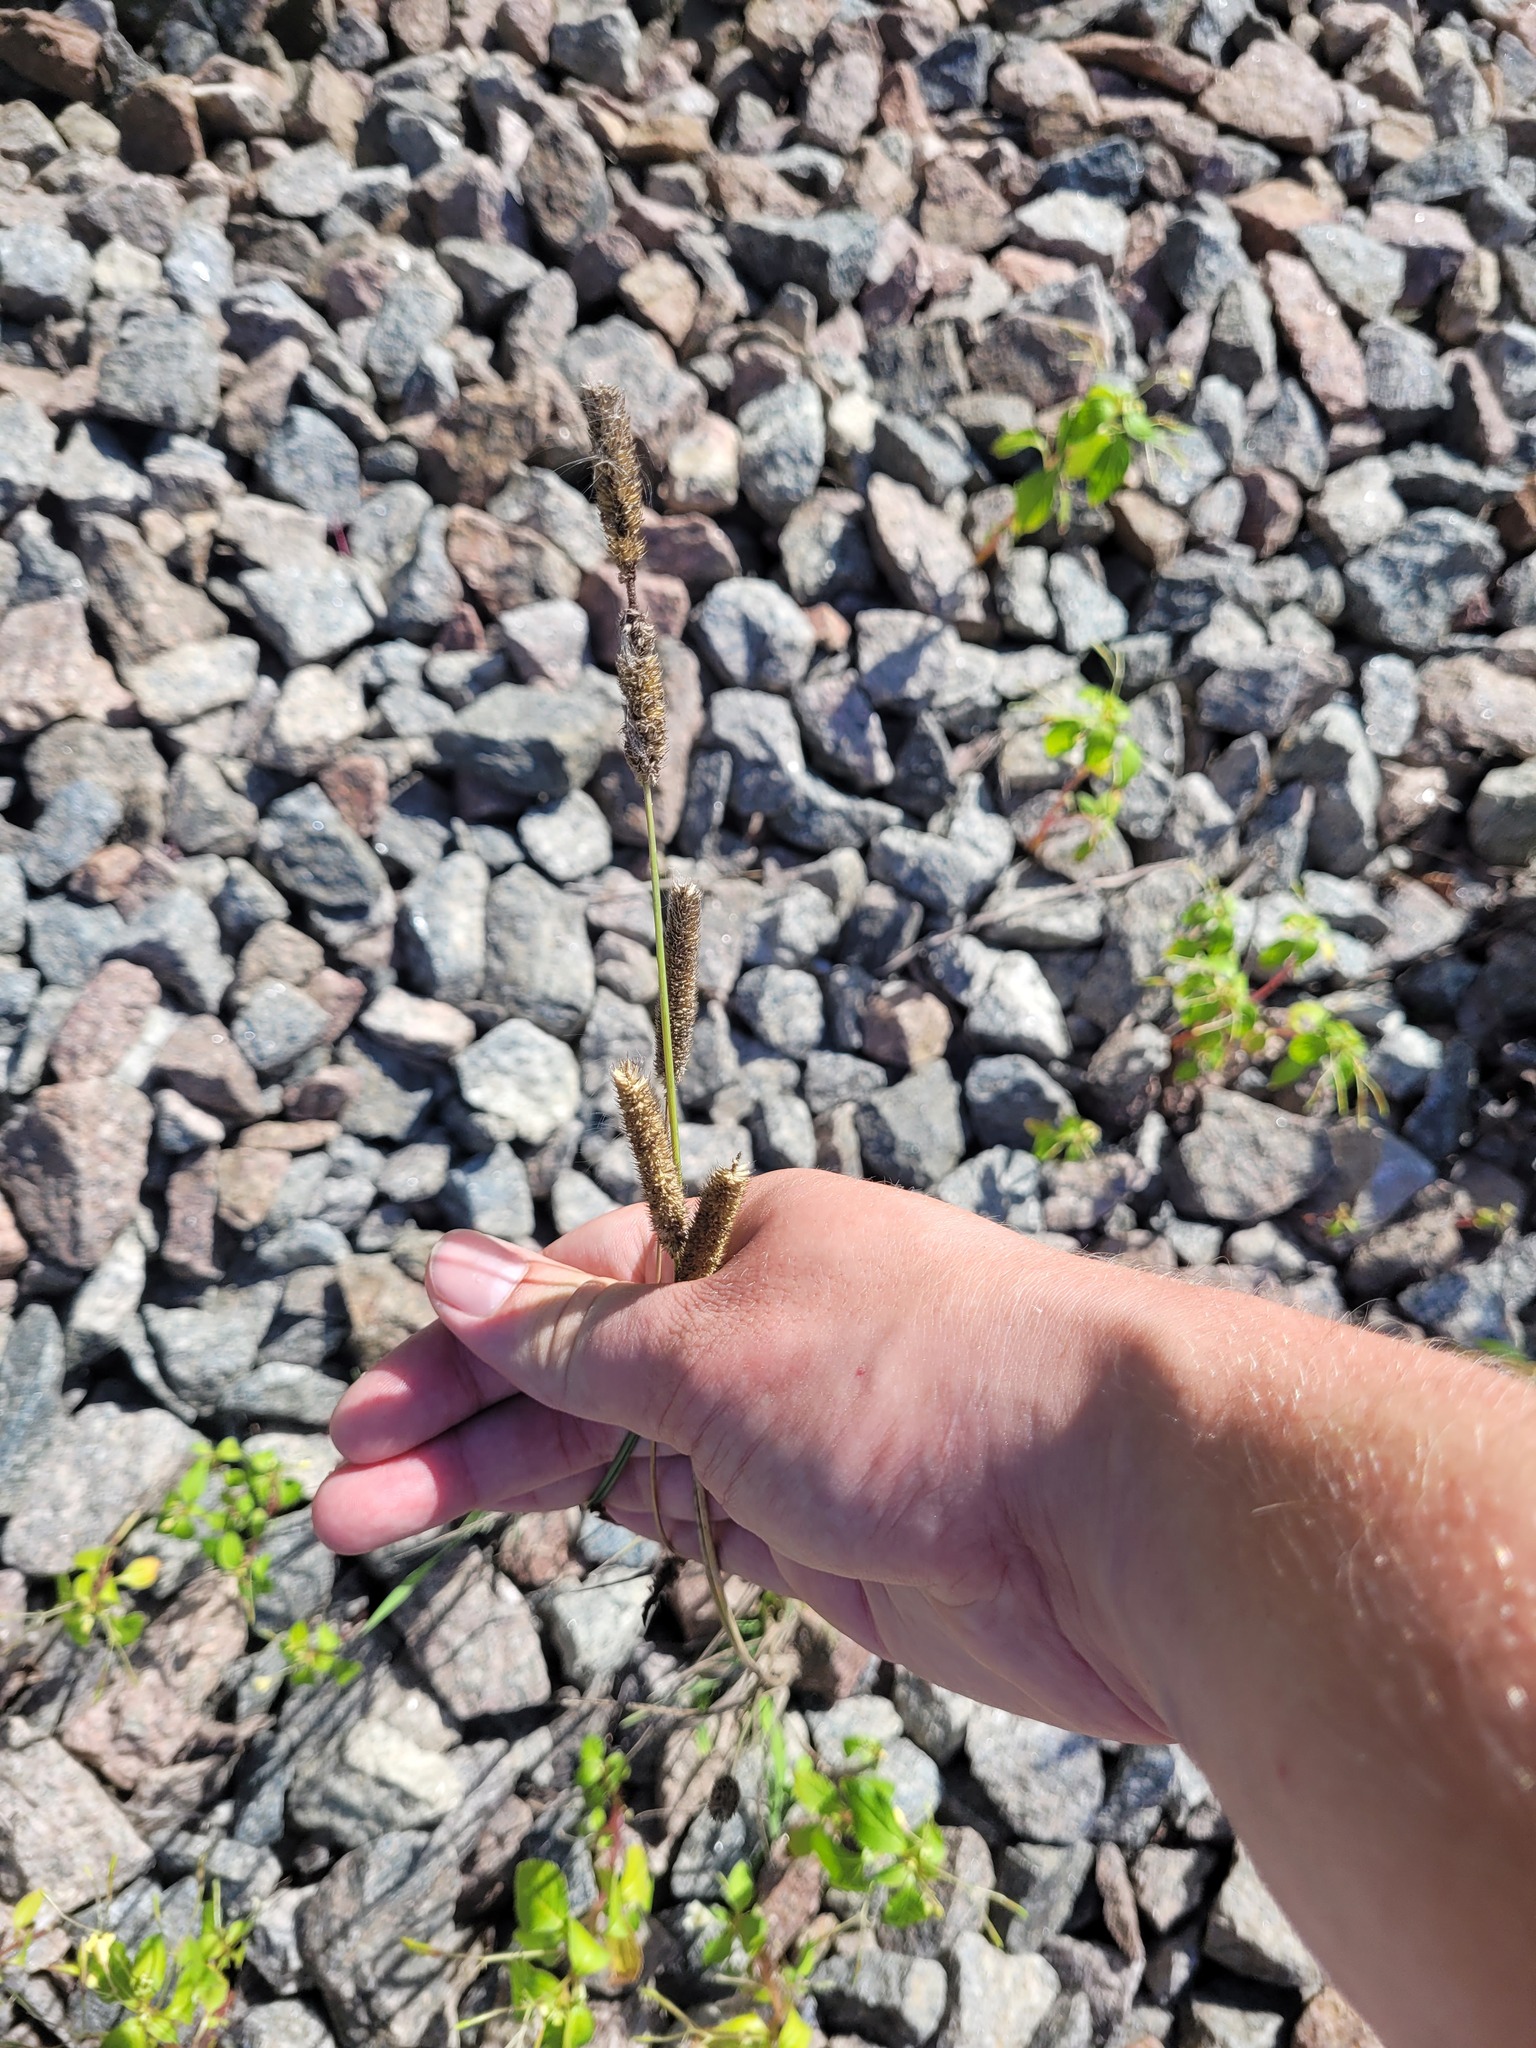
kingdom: Plantae
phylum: Tracheophyta
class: Liliopsida
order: Poales
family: Poaceae
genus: Phleum
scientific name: Phleum pratense
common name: Timothy grass
